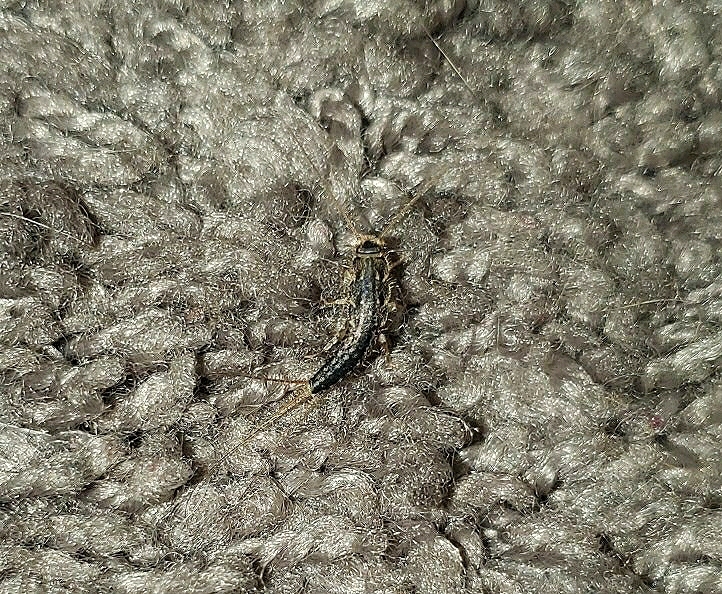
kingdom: Animalia
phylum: Arthropoda
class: Insecta
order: Zygentoma
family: Lepismatidae
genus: Ctenolepisma
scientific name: Ctenolepisma lineata
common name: Four-lined silverfish
